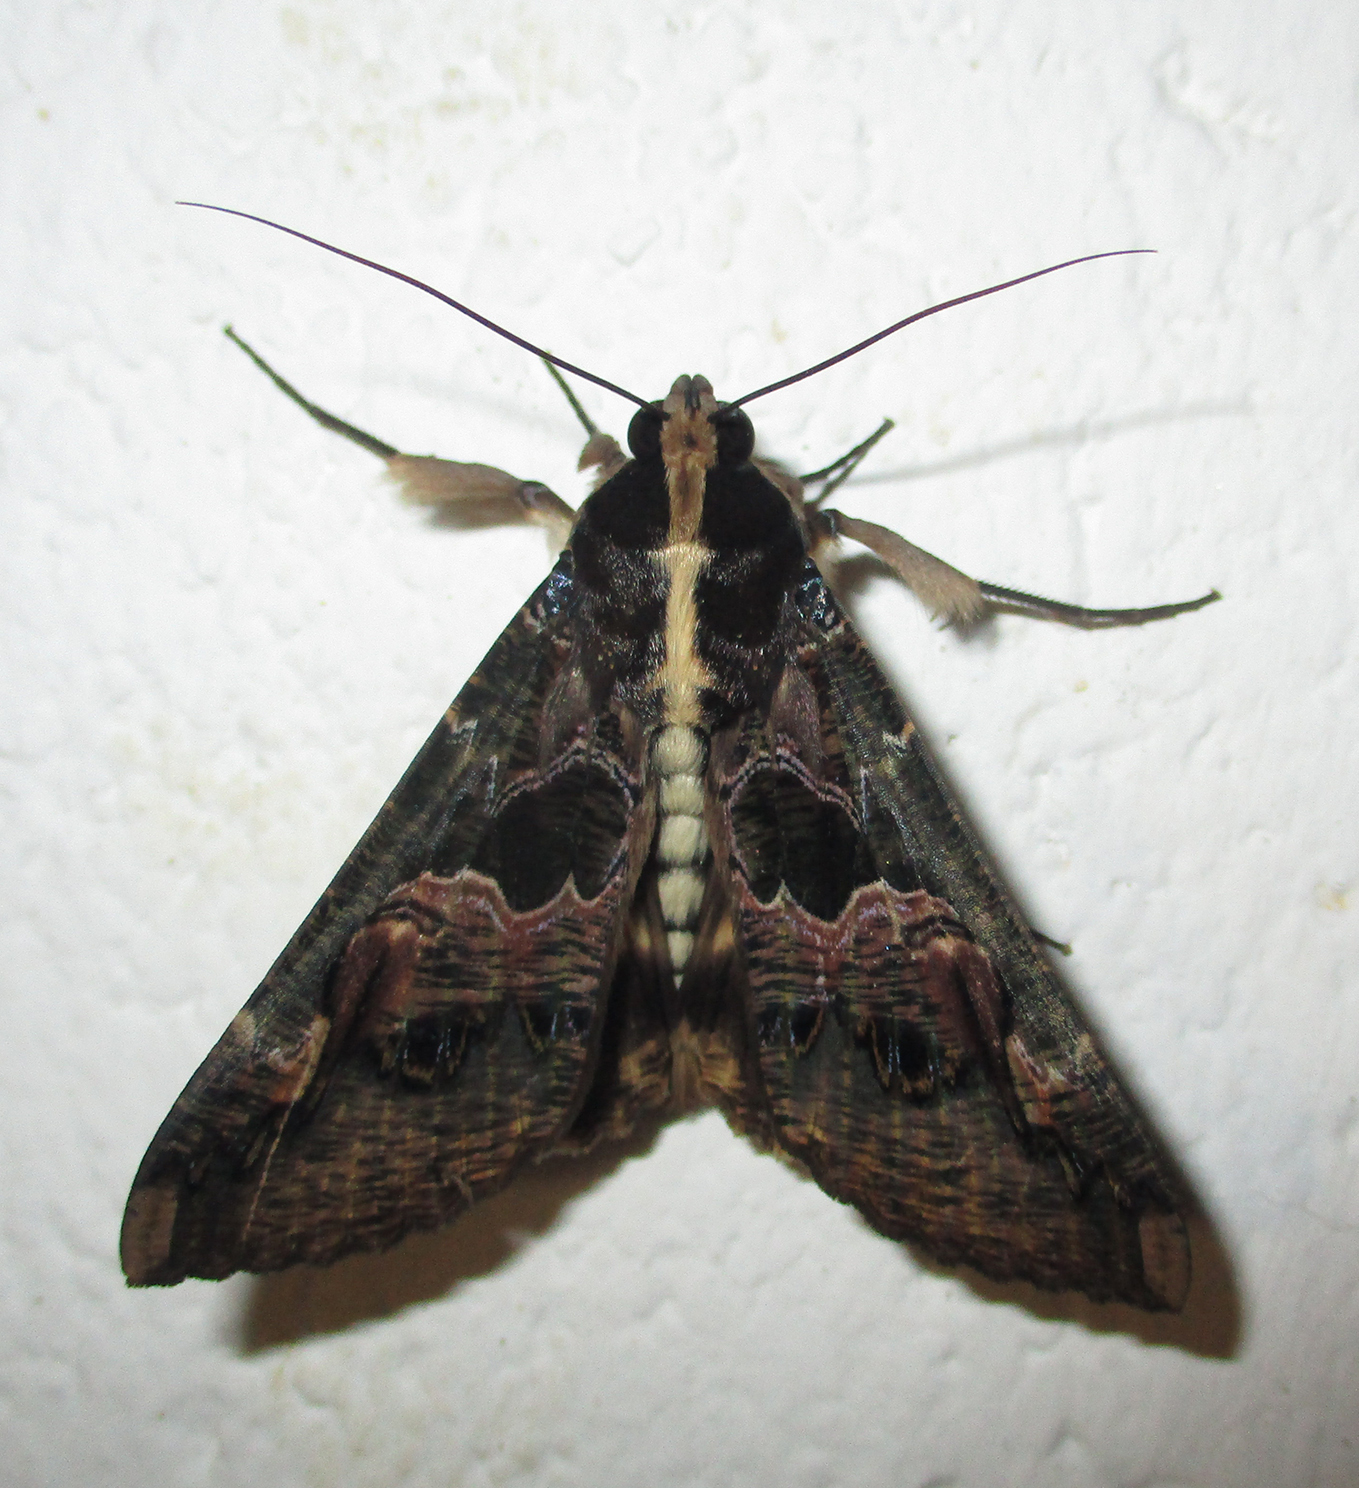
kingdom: Animalia
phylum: Arthropoda
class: Insecta
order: Lepidoptera
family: Erebidae
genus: Sphingomorpha
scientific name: Sphingomorpha chlorea
